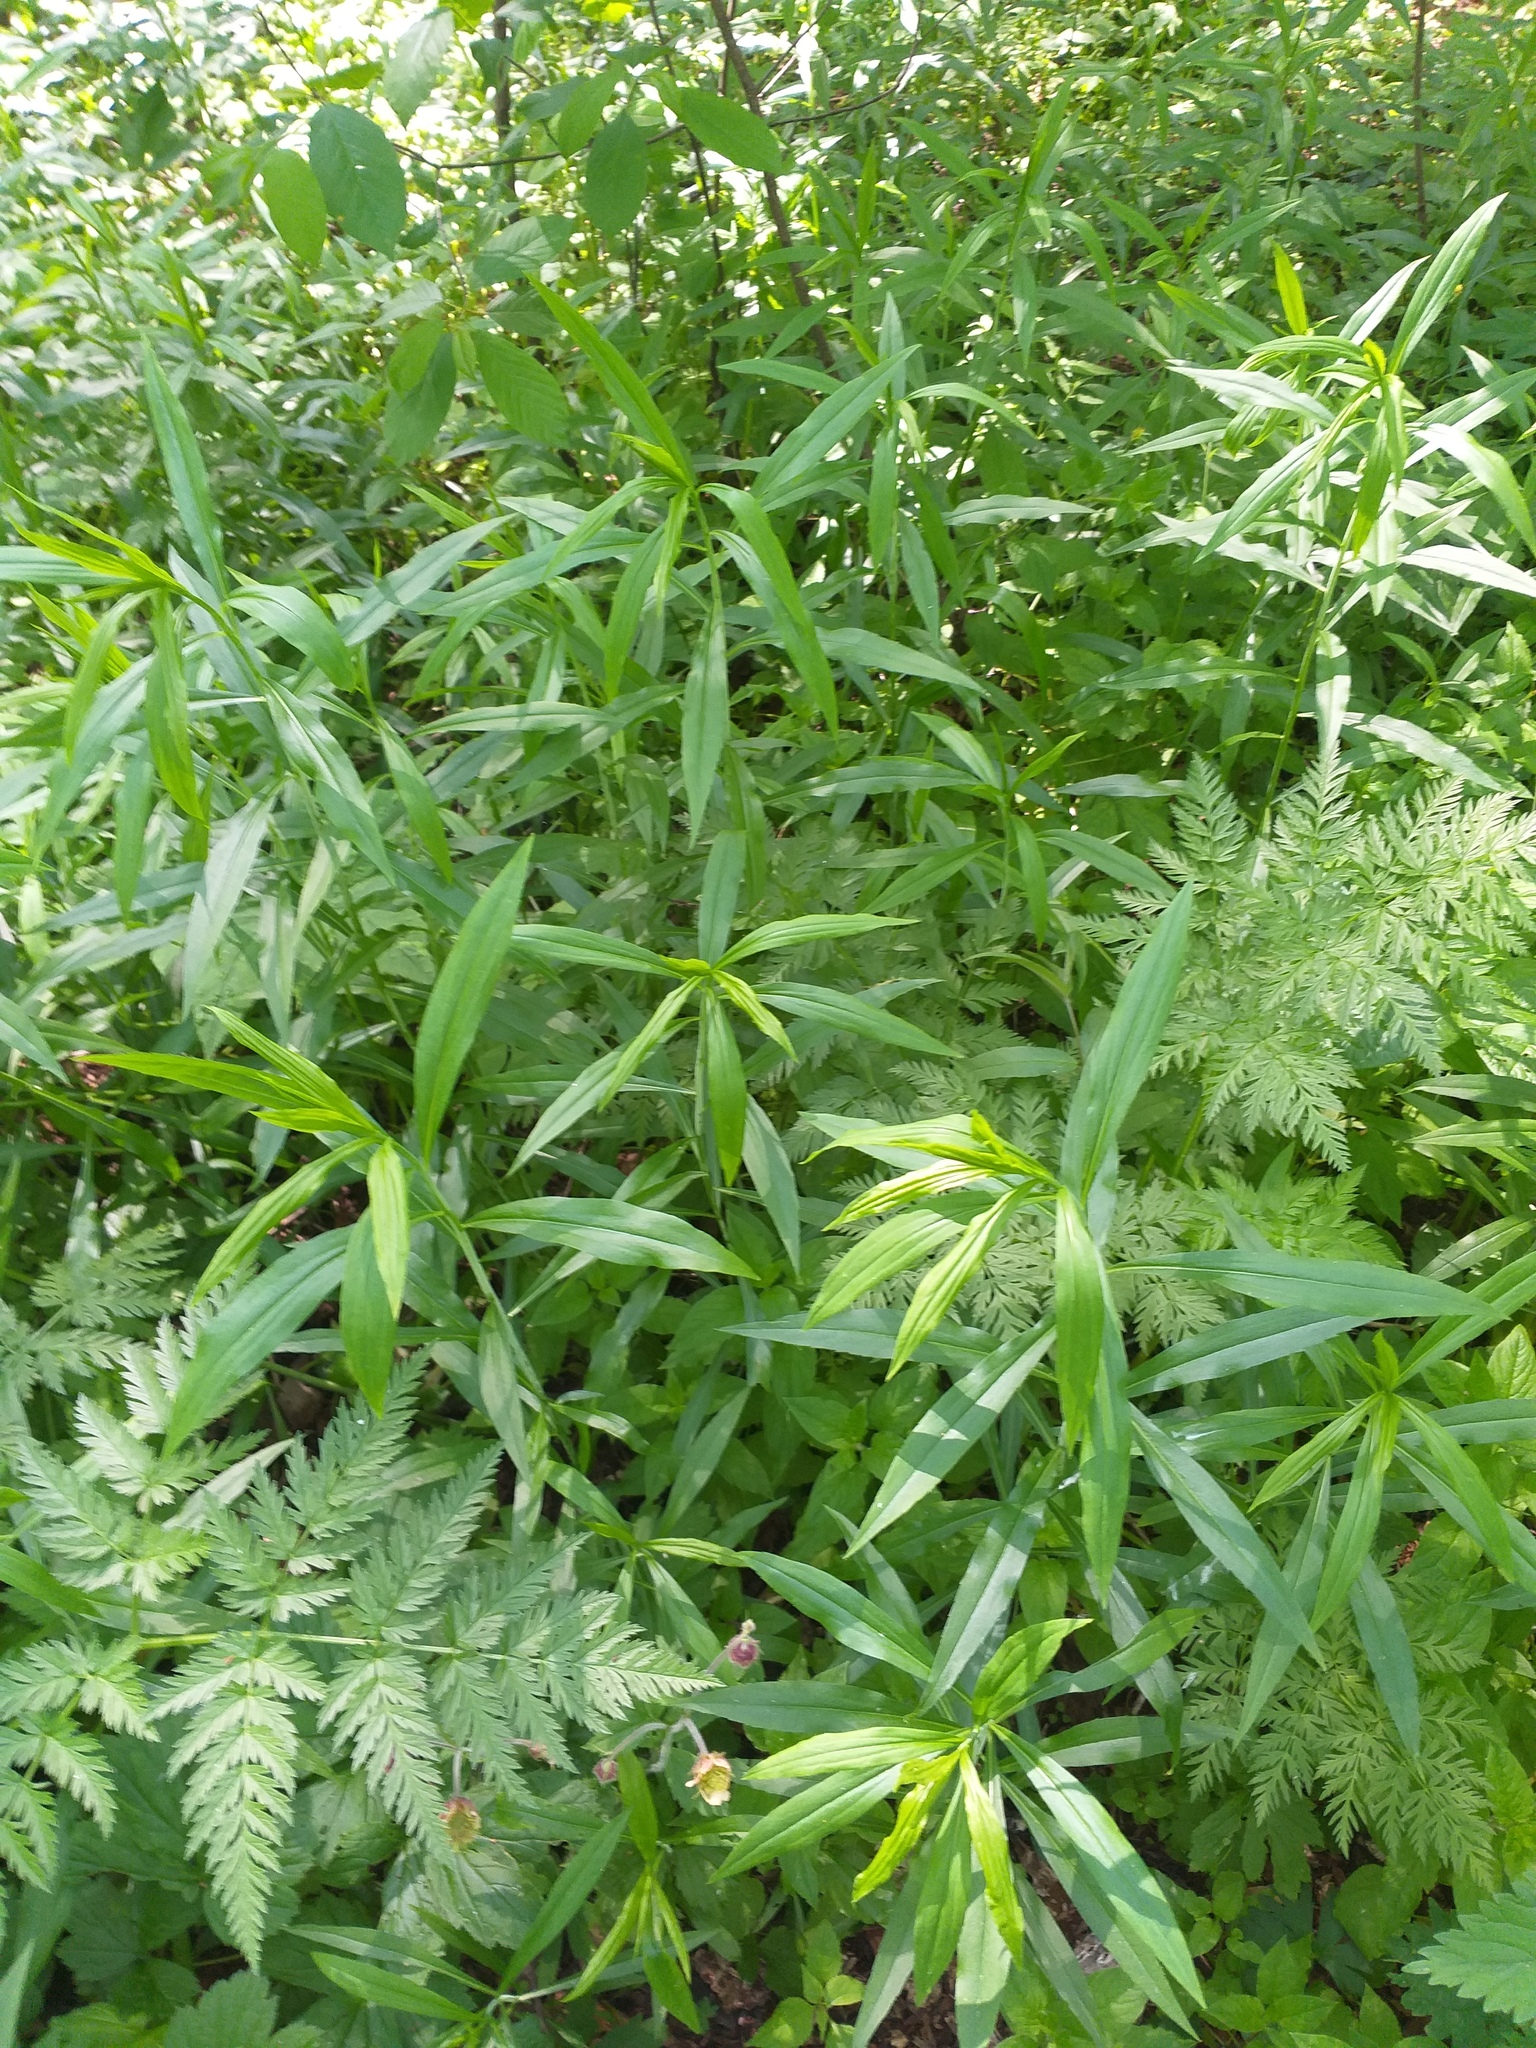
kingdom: Plantae
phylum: Tracheophyta
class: Magnoliopsida
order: Asterales
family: Asteraceae
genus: Solidago
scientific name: Solidago gigantea
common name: Giant goldenrod
